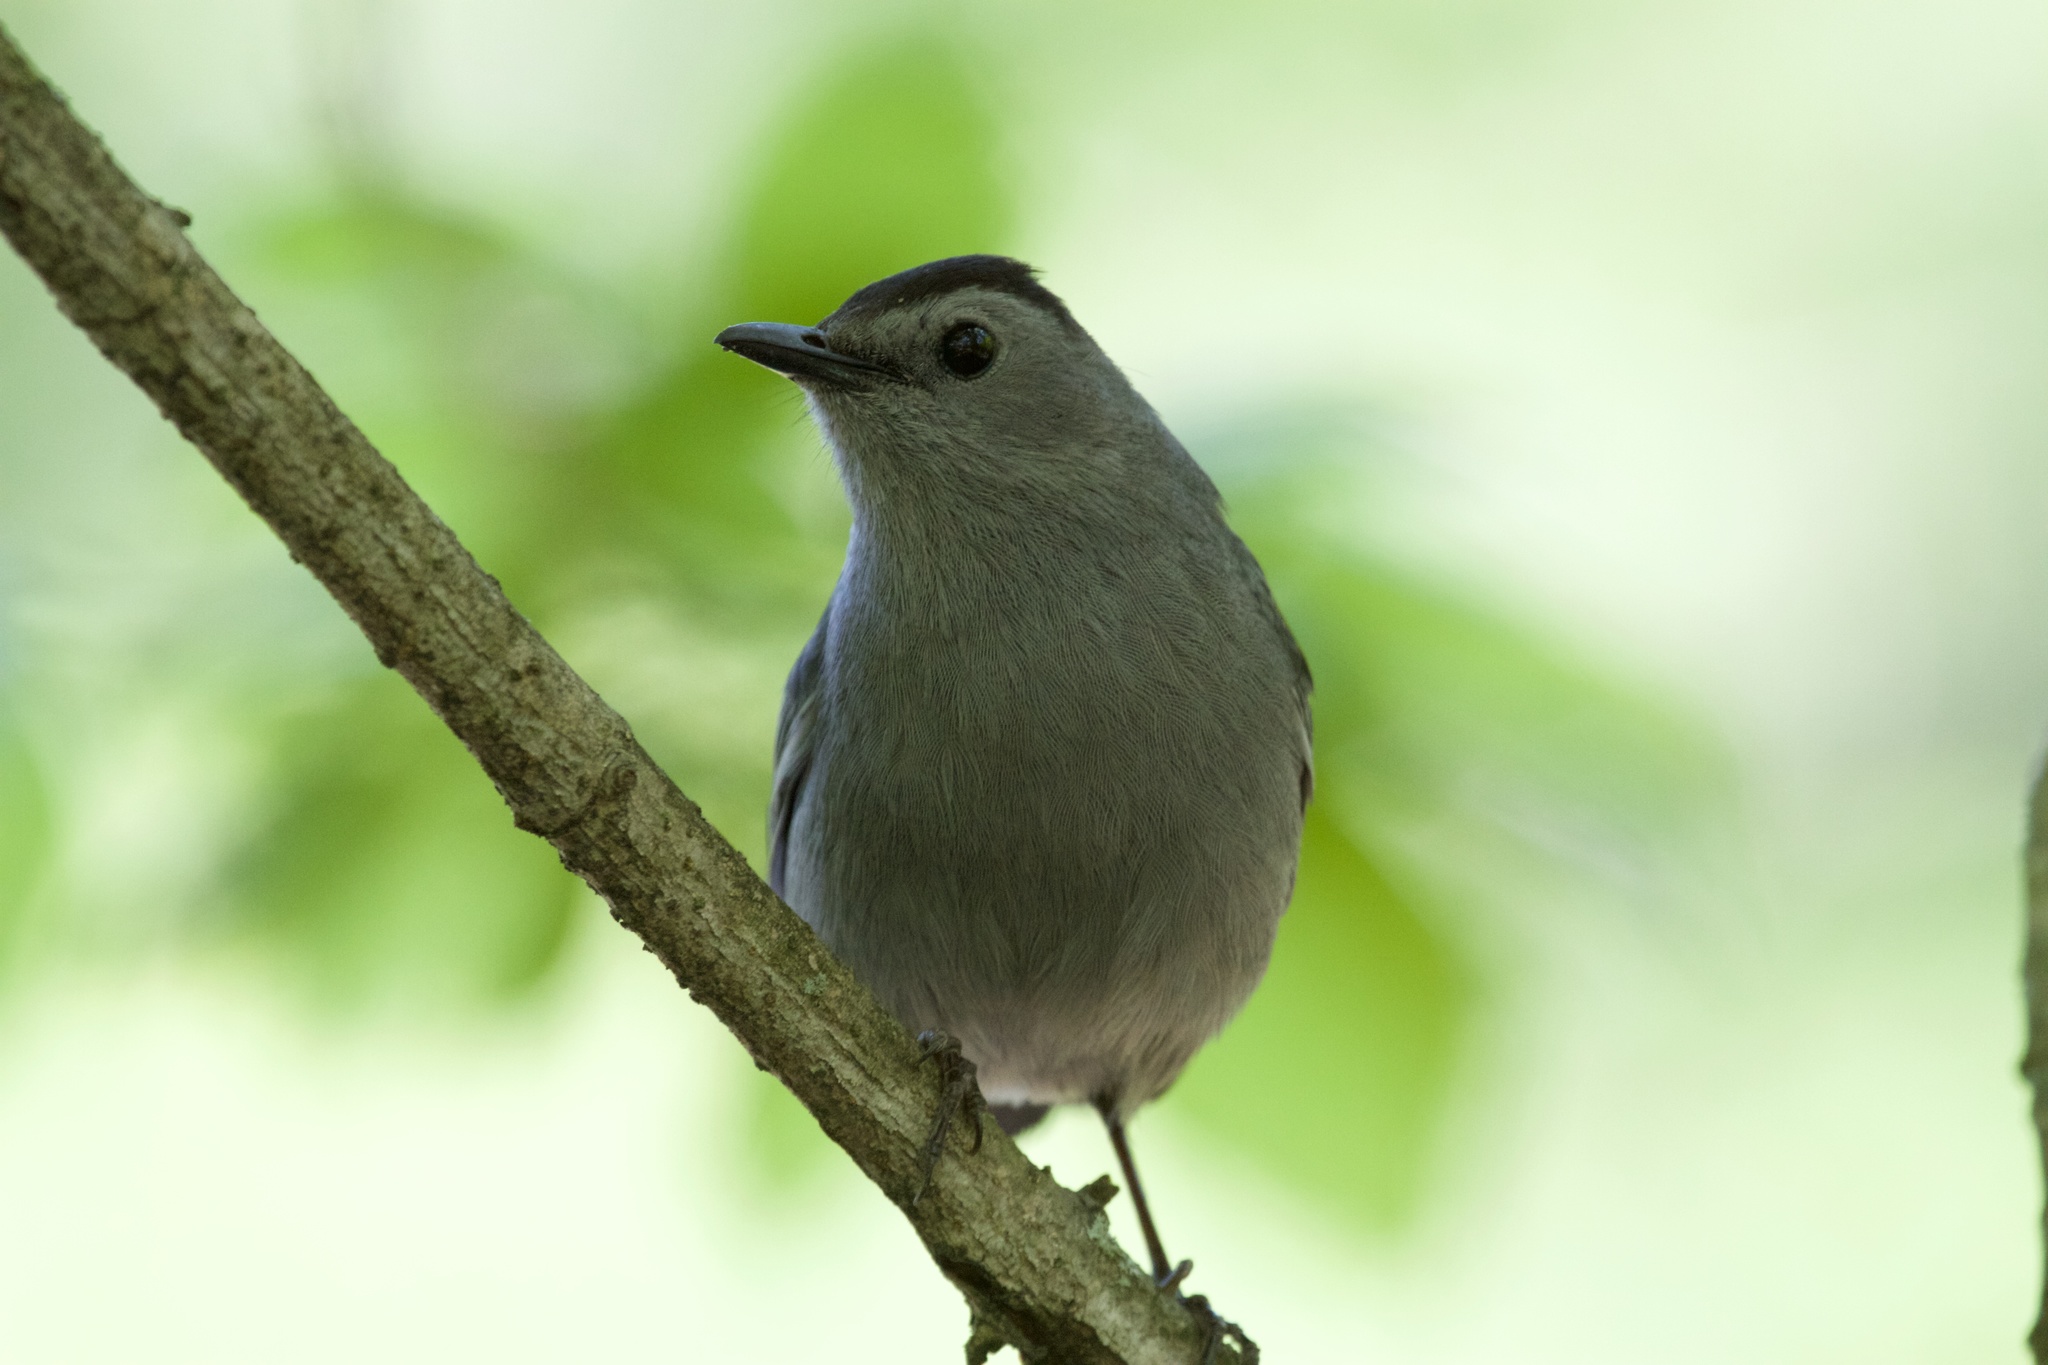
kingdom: Animalia
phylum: Chordata
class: Aves
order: Passeriformes
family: Mimidae
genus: Dumetella
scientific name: Dumetella carolinensis
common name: Gray catbird
